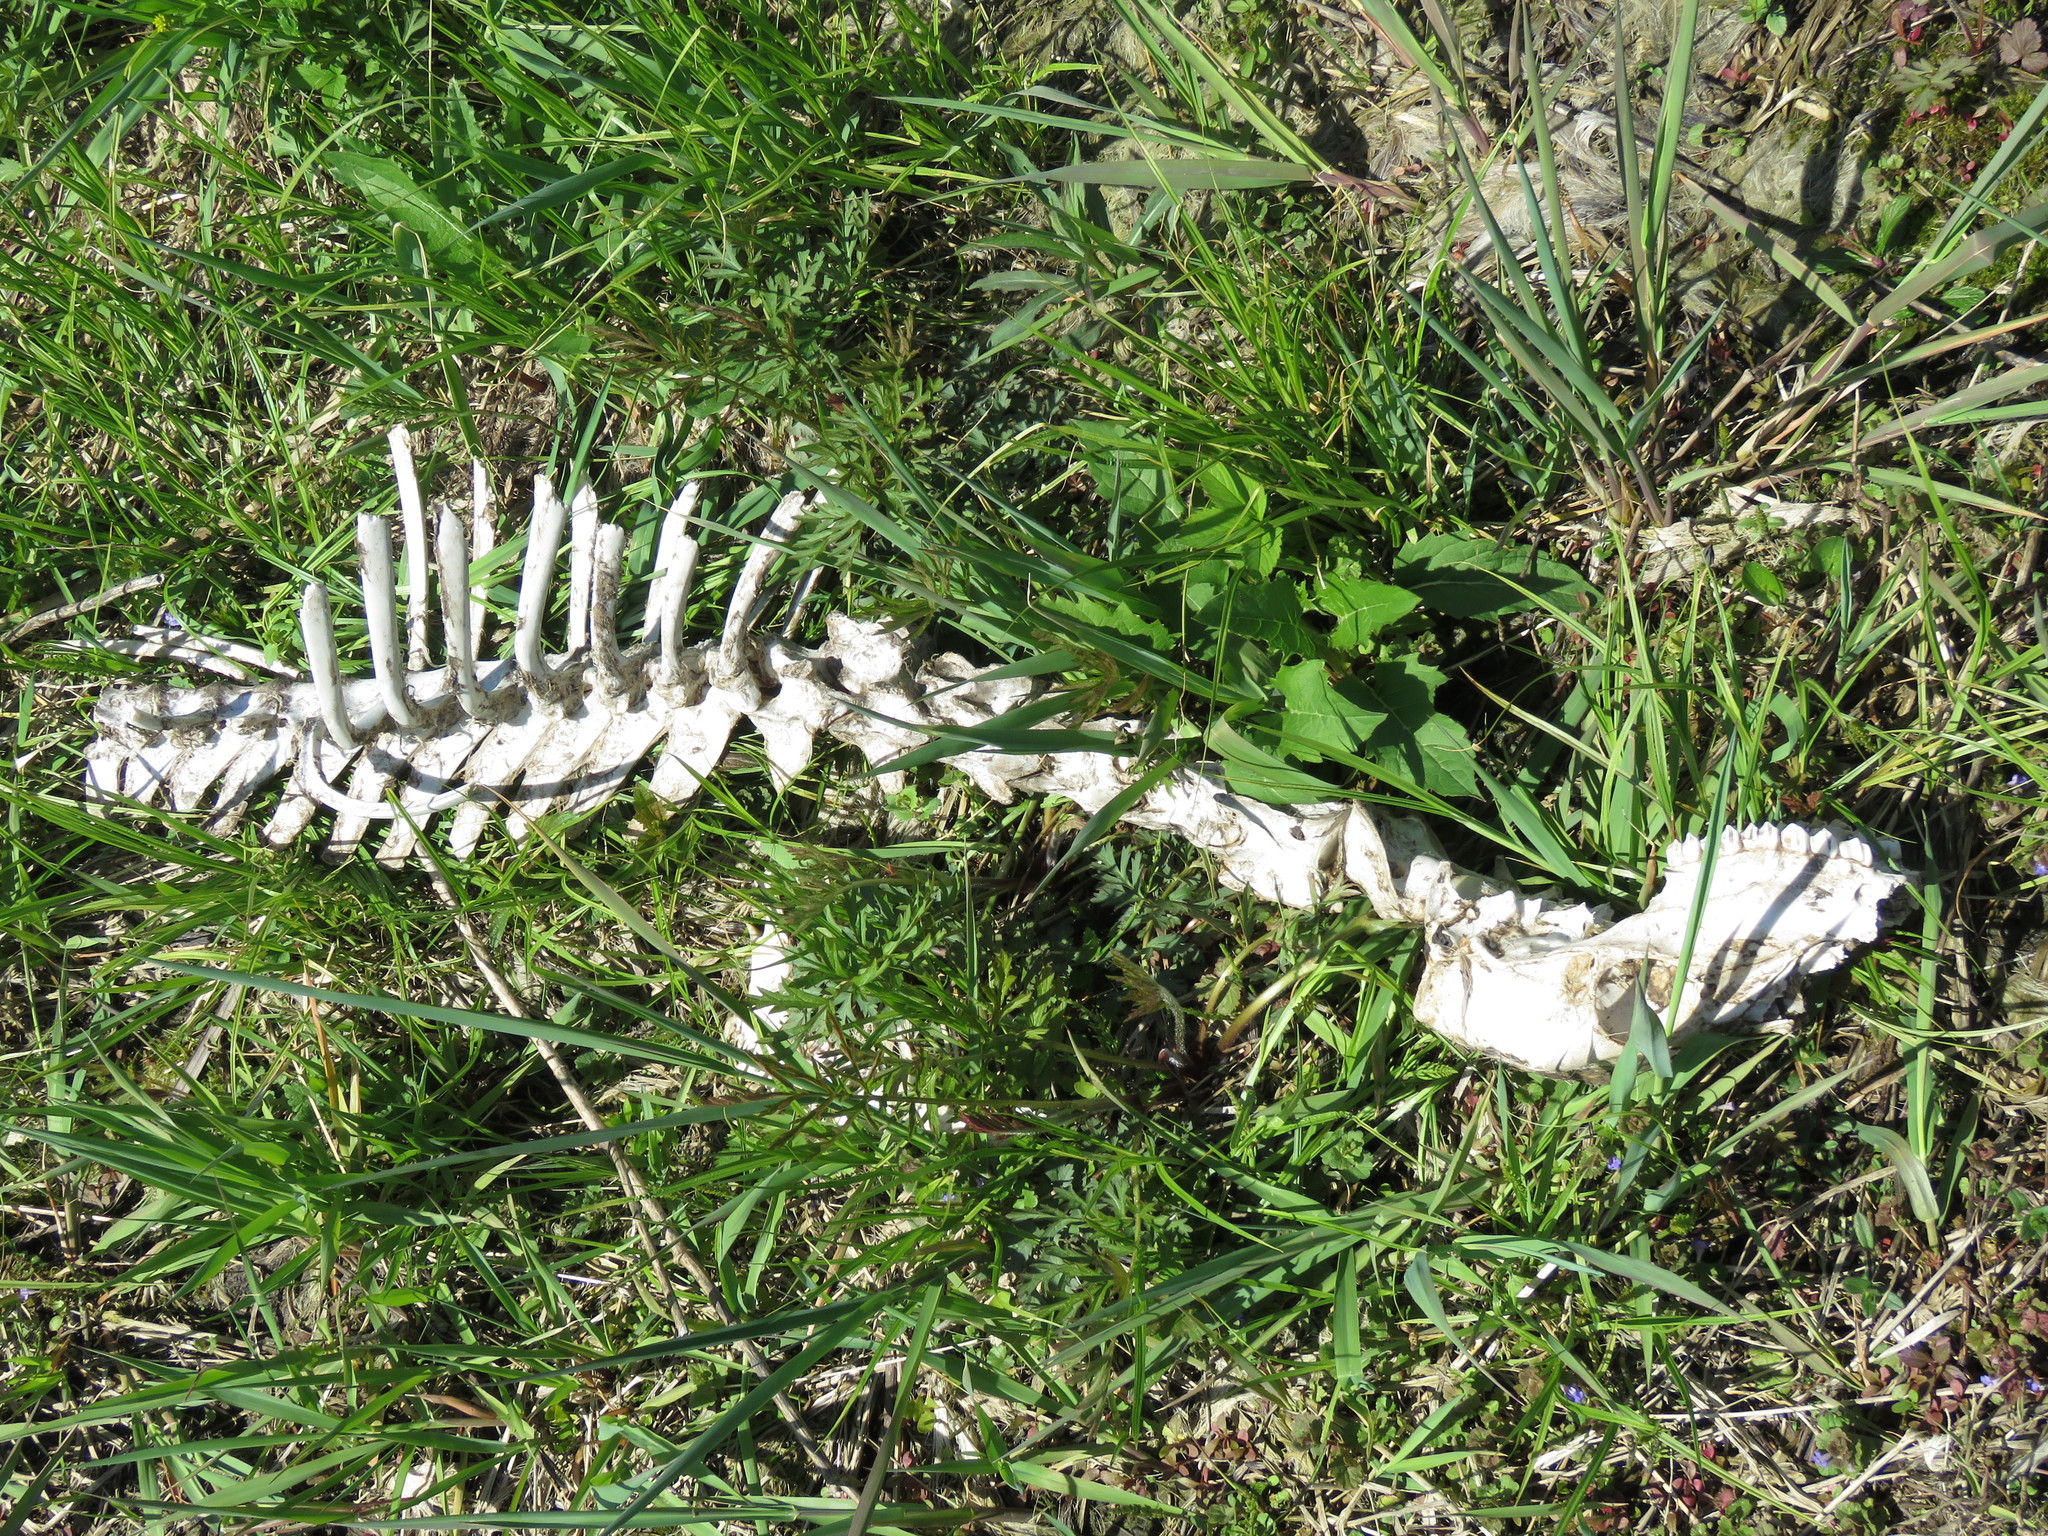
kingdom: Animalia
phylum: Chordata
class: Mammalia
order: Artiodactyla
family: Cervidae
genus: Odocoileus
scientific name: Odocoileus virginianus
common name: White-tailed deer
